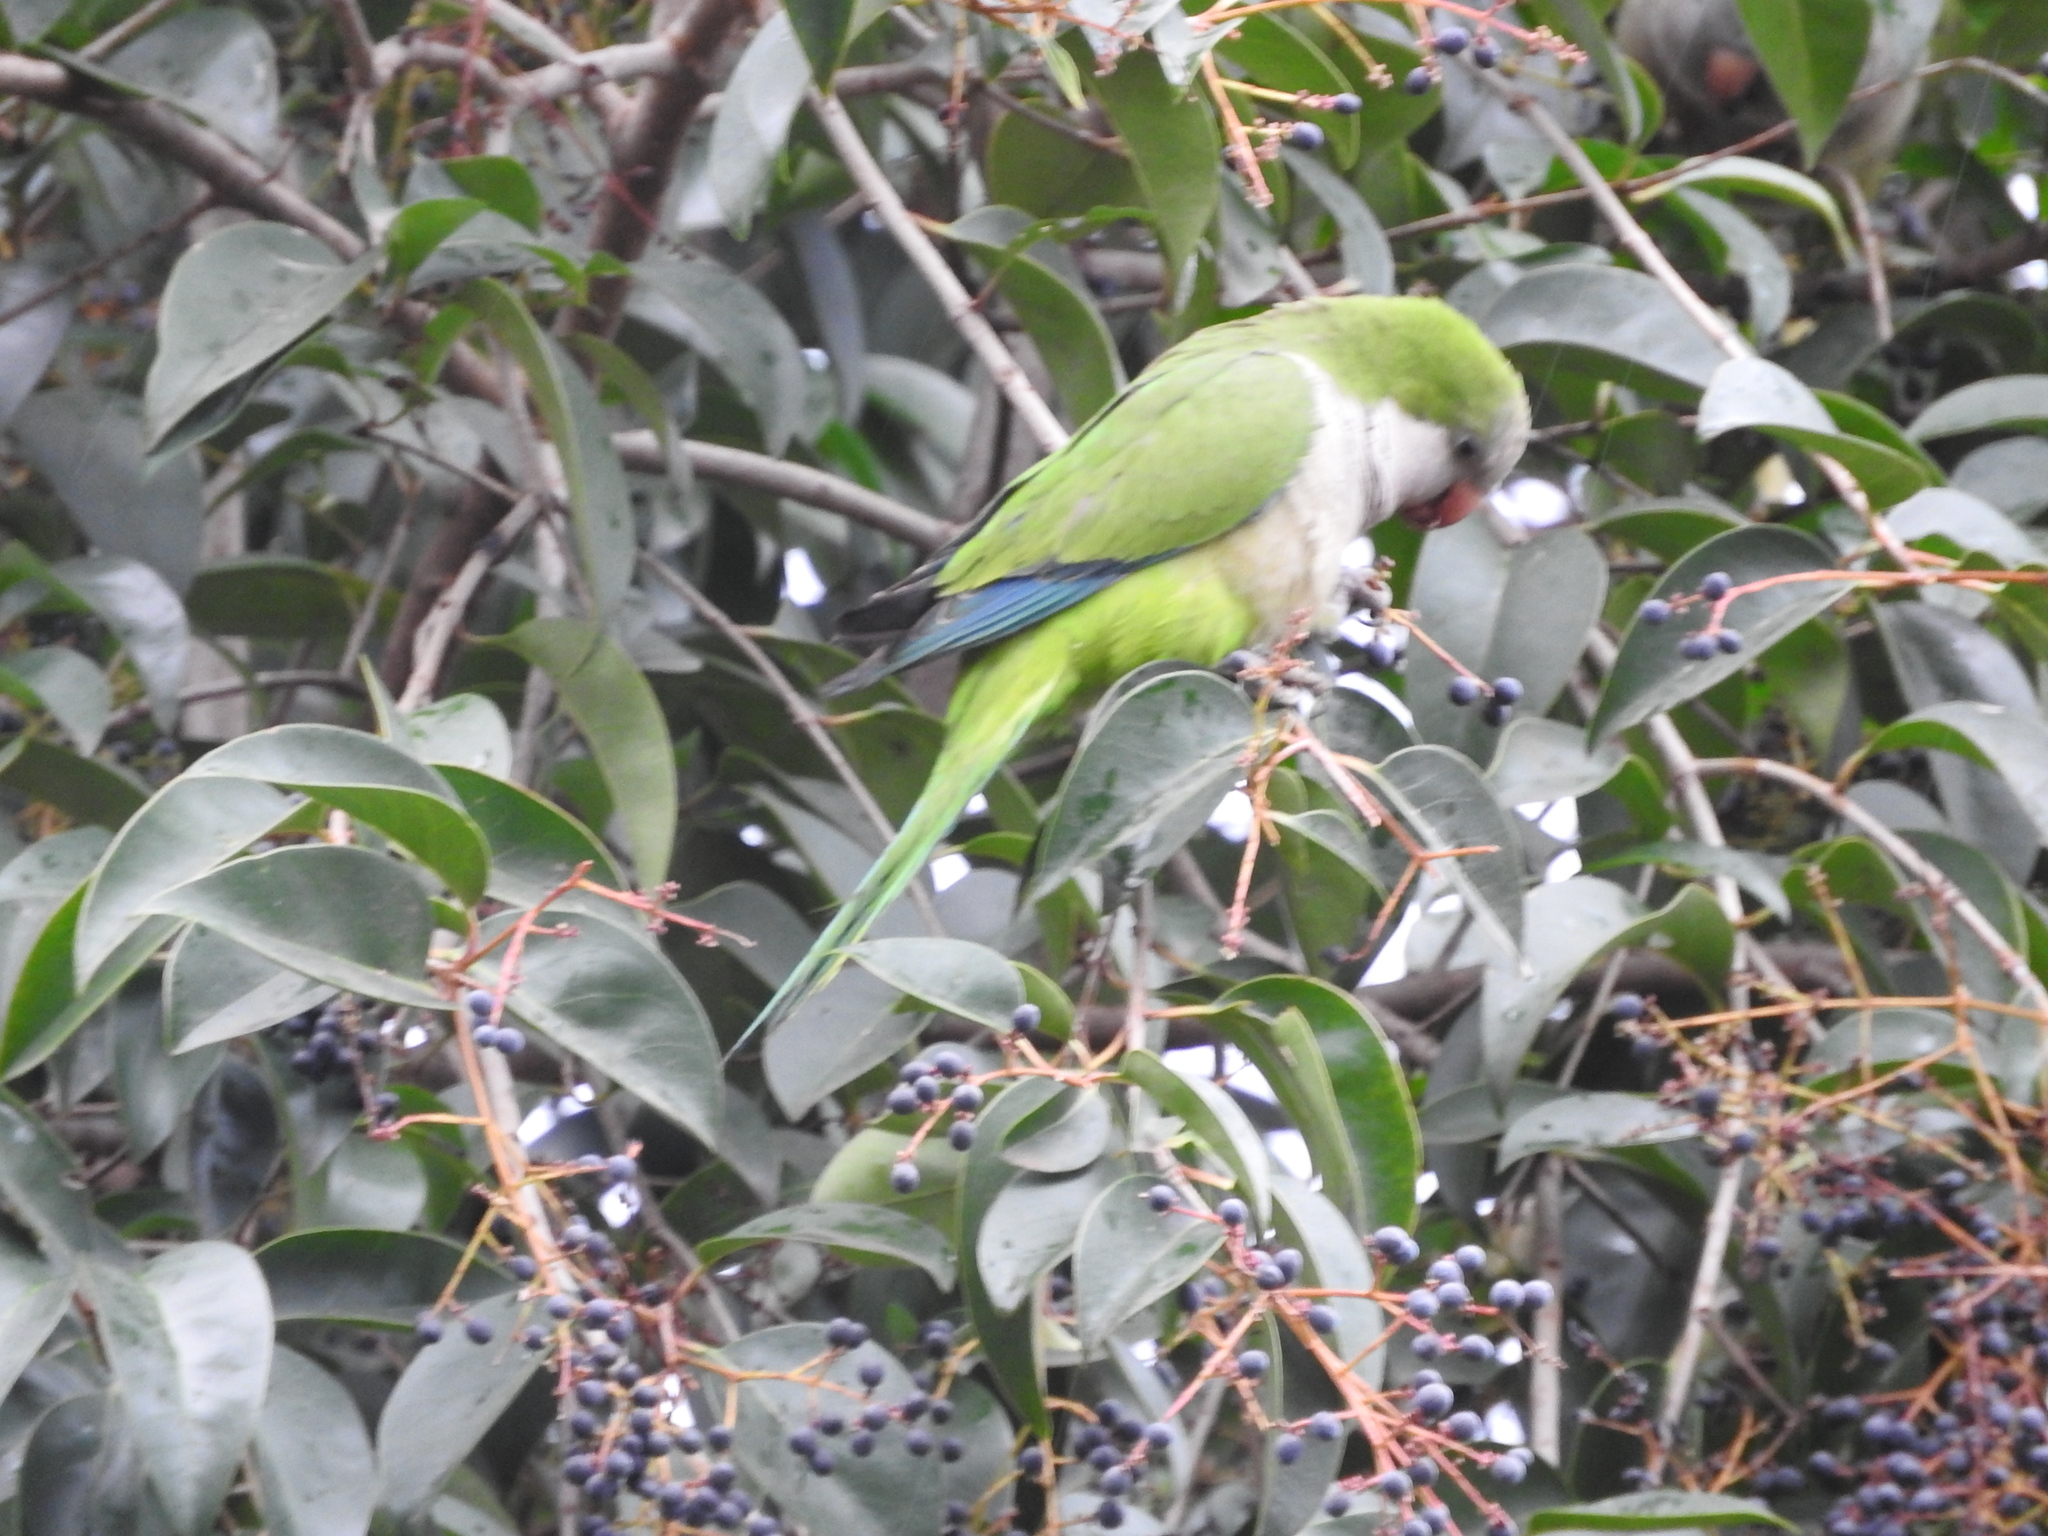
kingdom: Animalia
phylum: Chordata
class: Aves
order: Psittaciformes
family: Psittacidae
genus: Myiopsitta
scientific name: Myiopsitta monachus
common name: Monk parakeet
